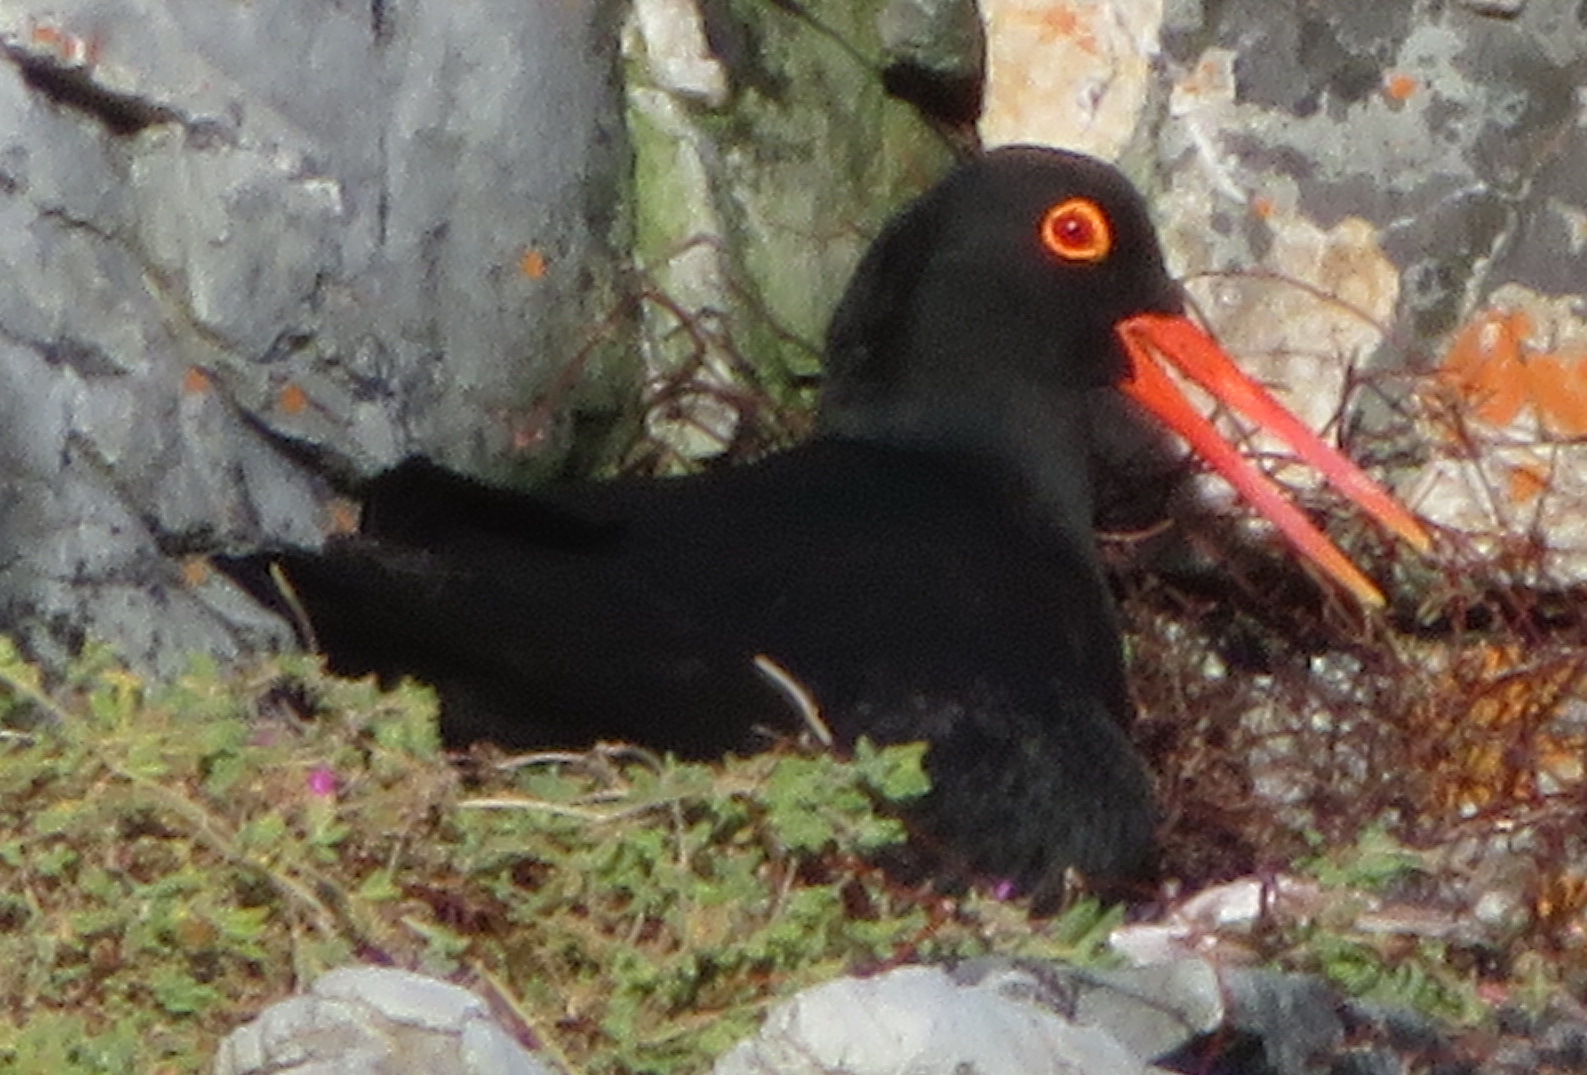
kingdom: Animalia
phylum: Chordata
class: Aves
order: Charadriiformes
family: Haematopodidae
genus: Haematopus
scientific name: Haematopus moquini
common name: African oystercatcher
